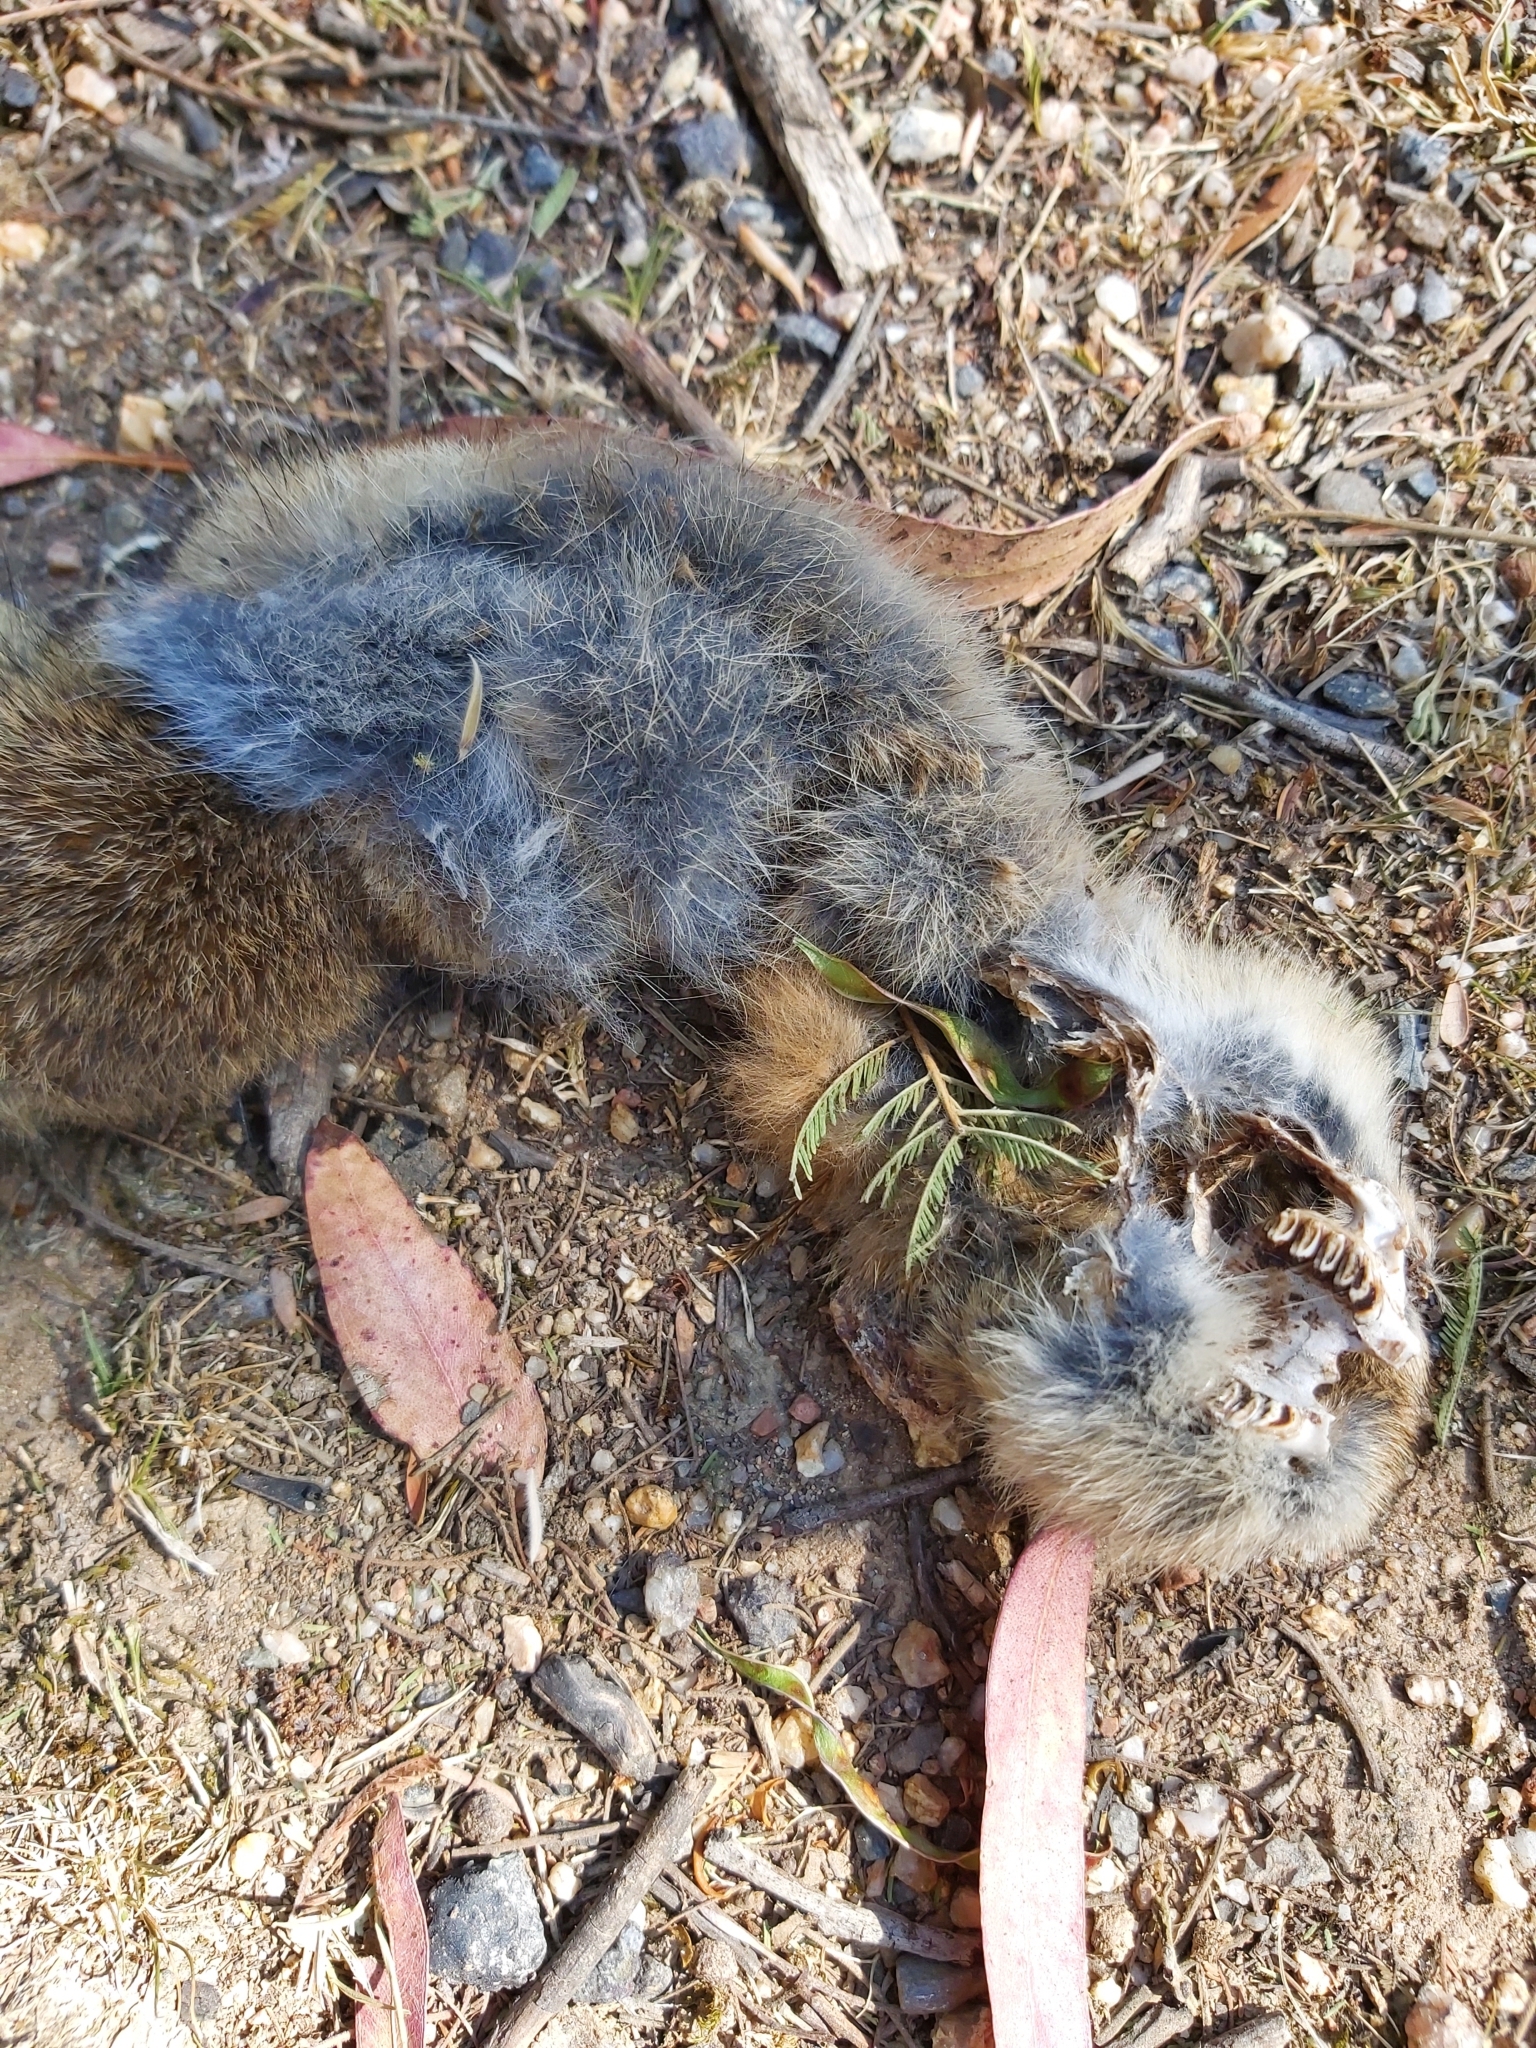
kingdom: Animalia
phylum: Chordata
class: Mammalia
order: Lagomorpha
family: Leporidae
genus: Oryctolagus
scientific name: Oryctolagus cuniculus
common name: European rabbit
